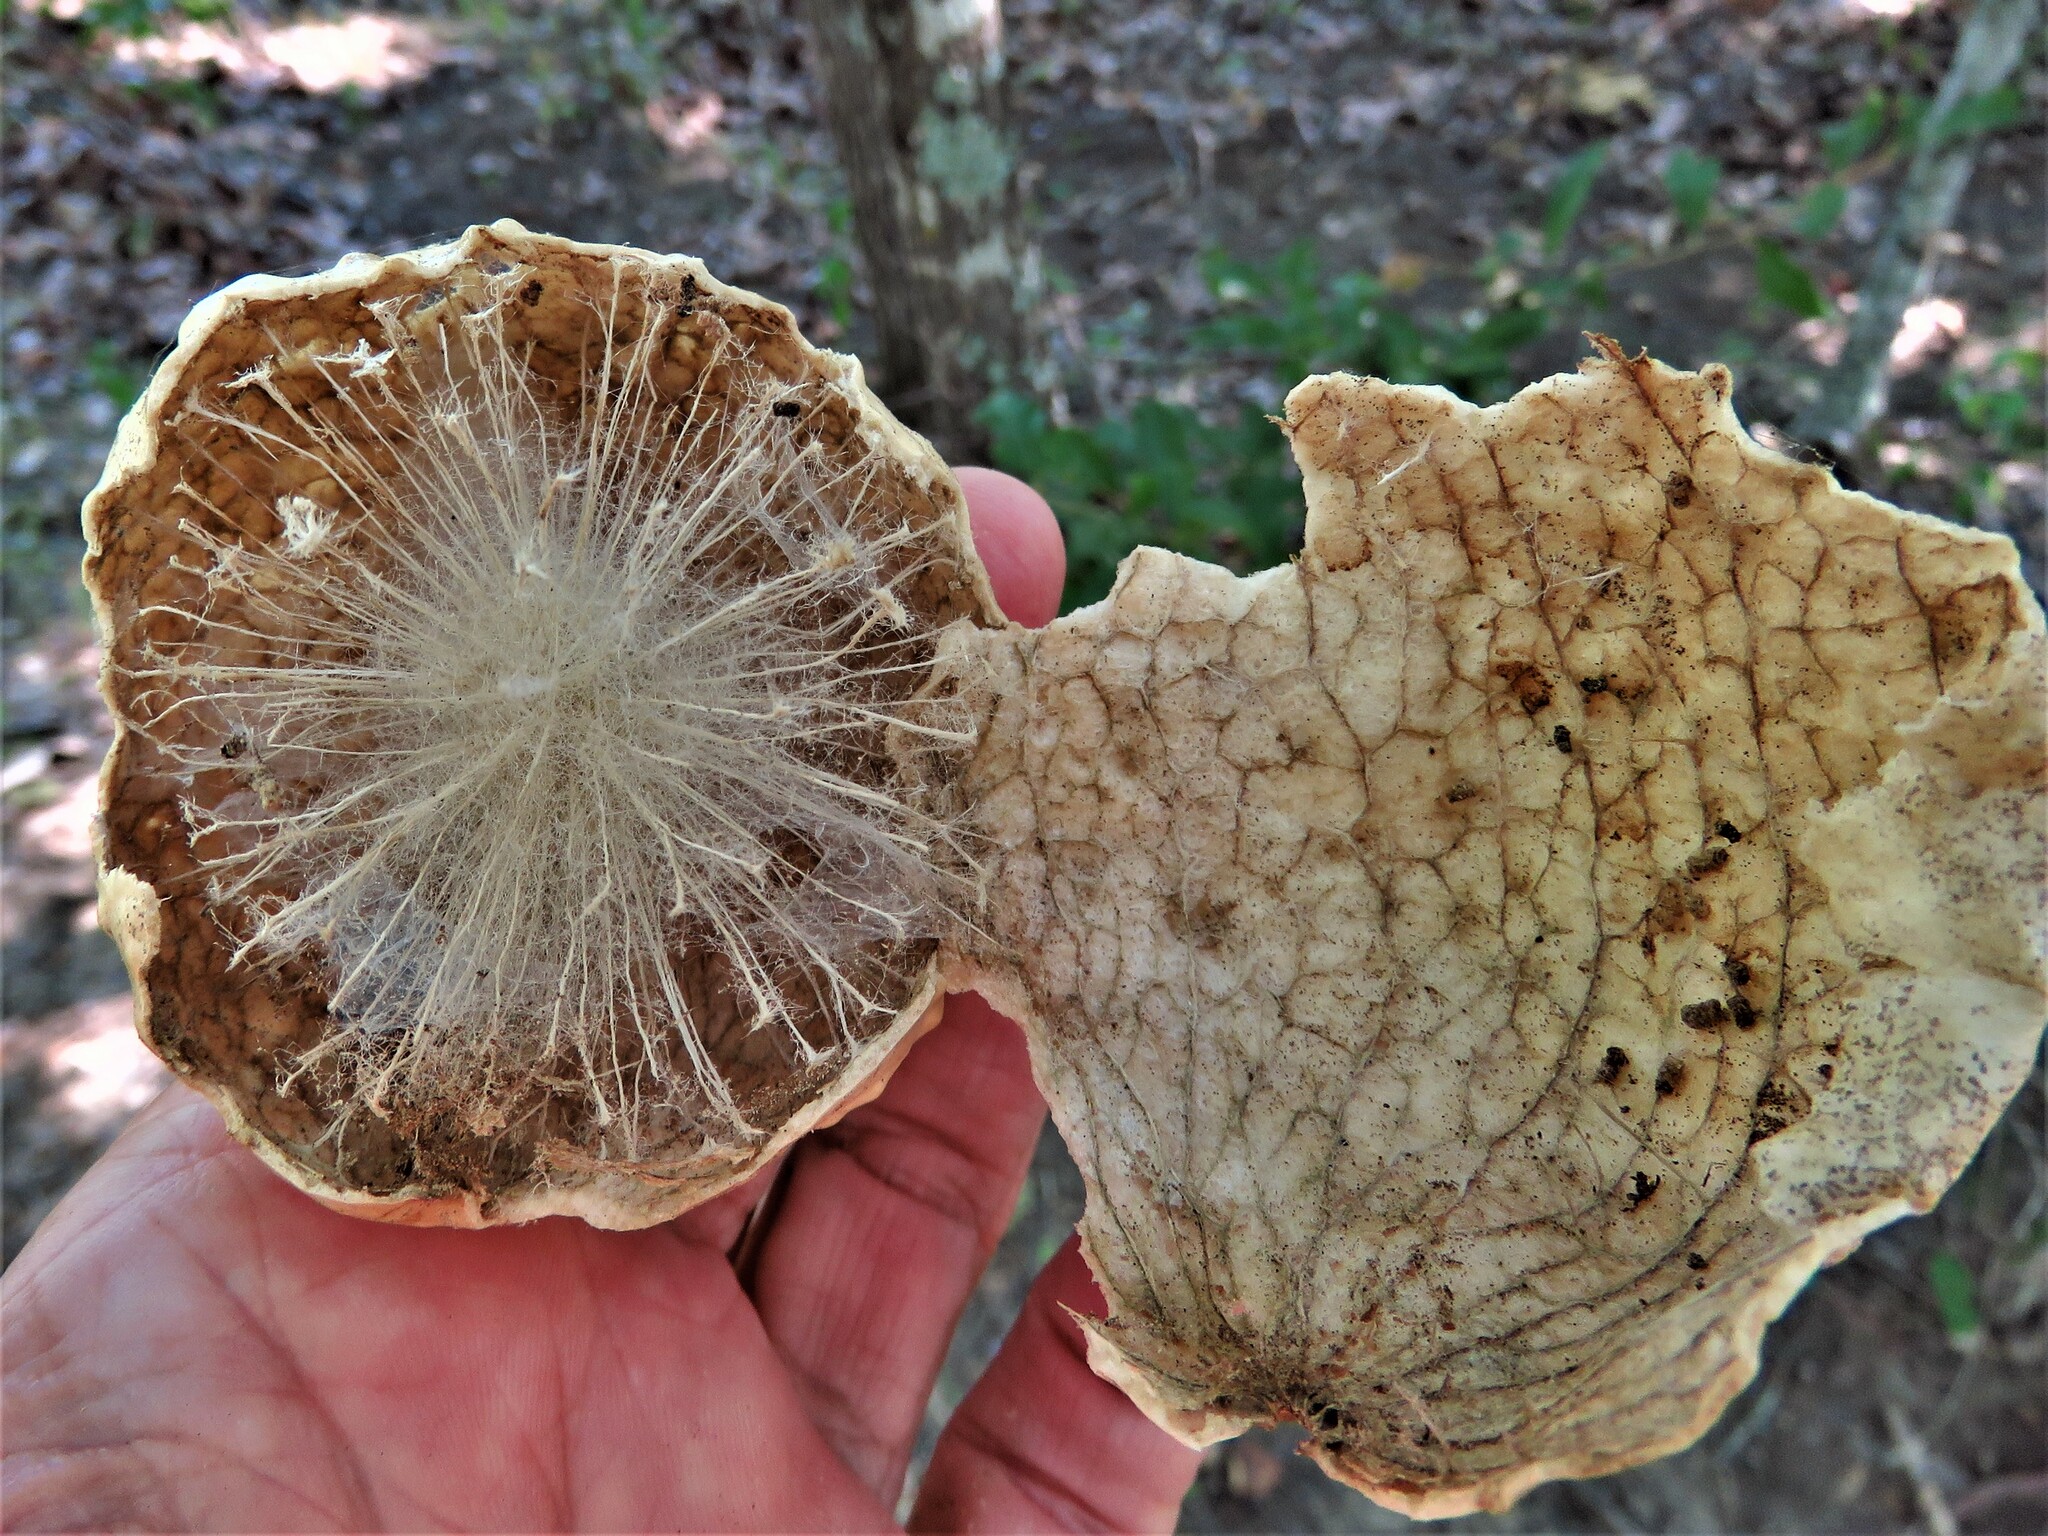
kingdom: Animalia
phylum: Arthropoda
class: Insecta
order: Hymenoptera
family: Cynipidae
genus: Amphibolips
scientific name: Amphibolips
